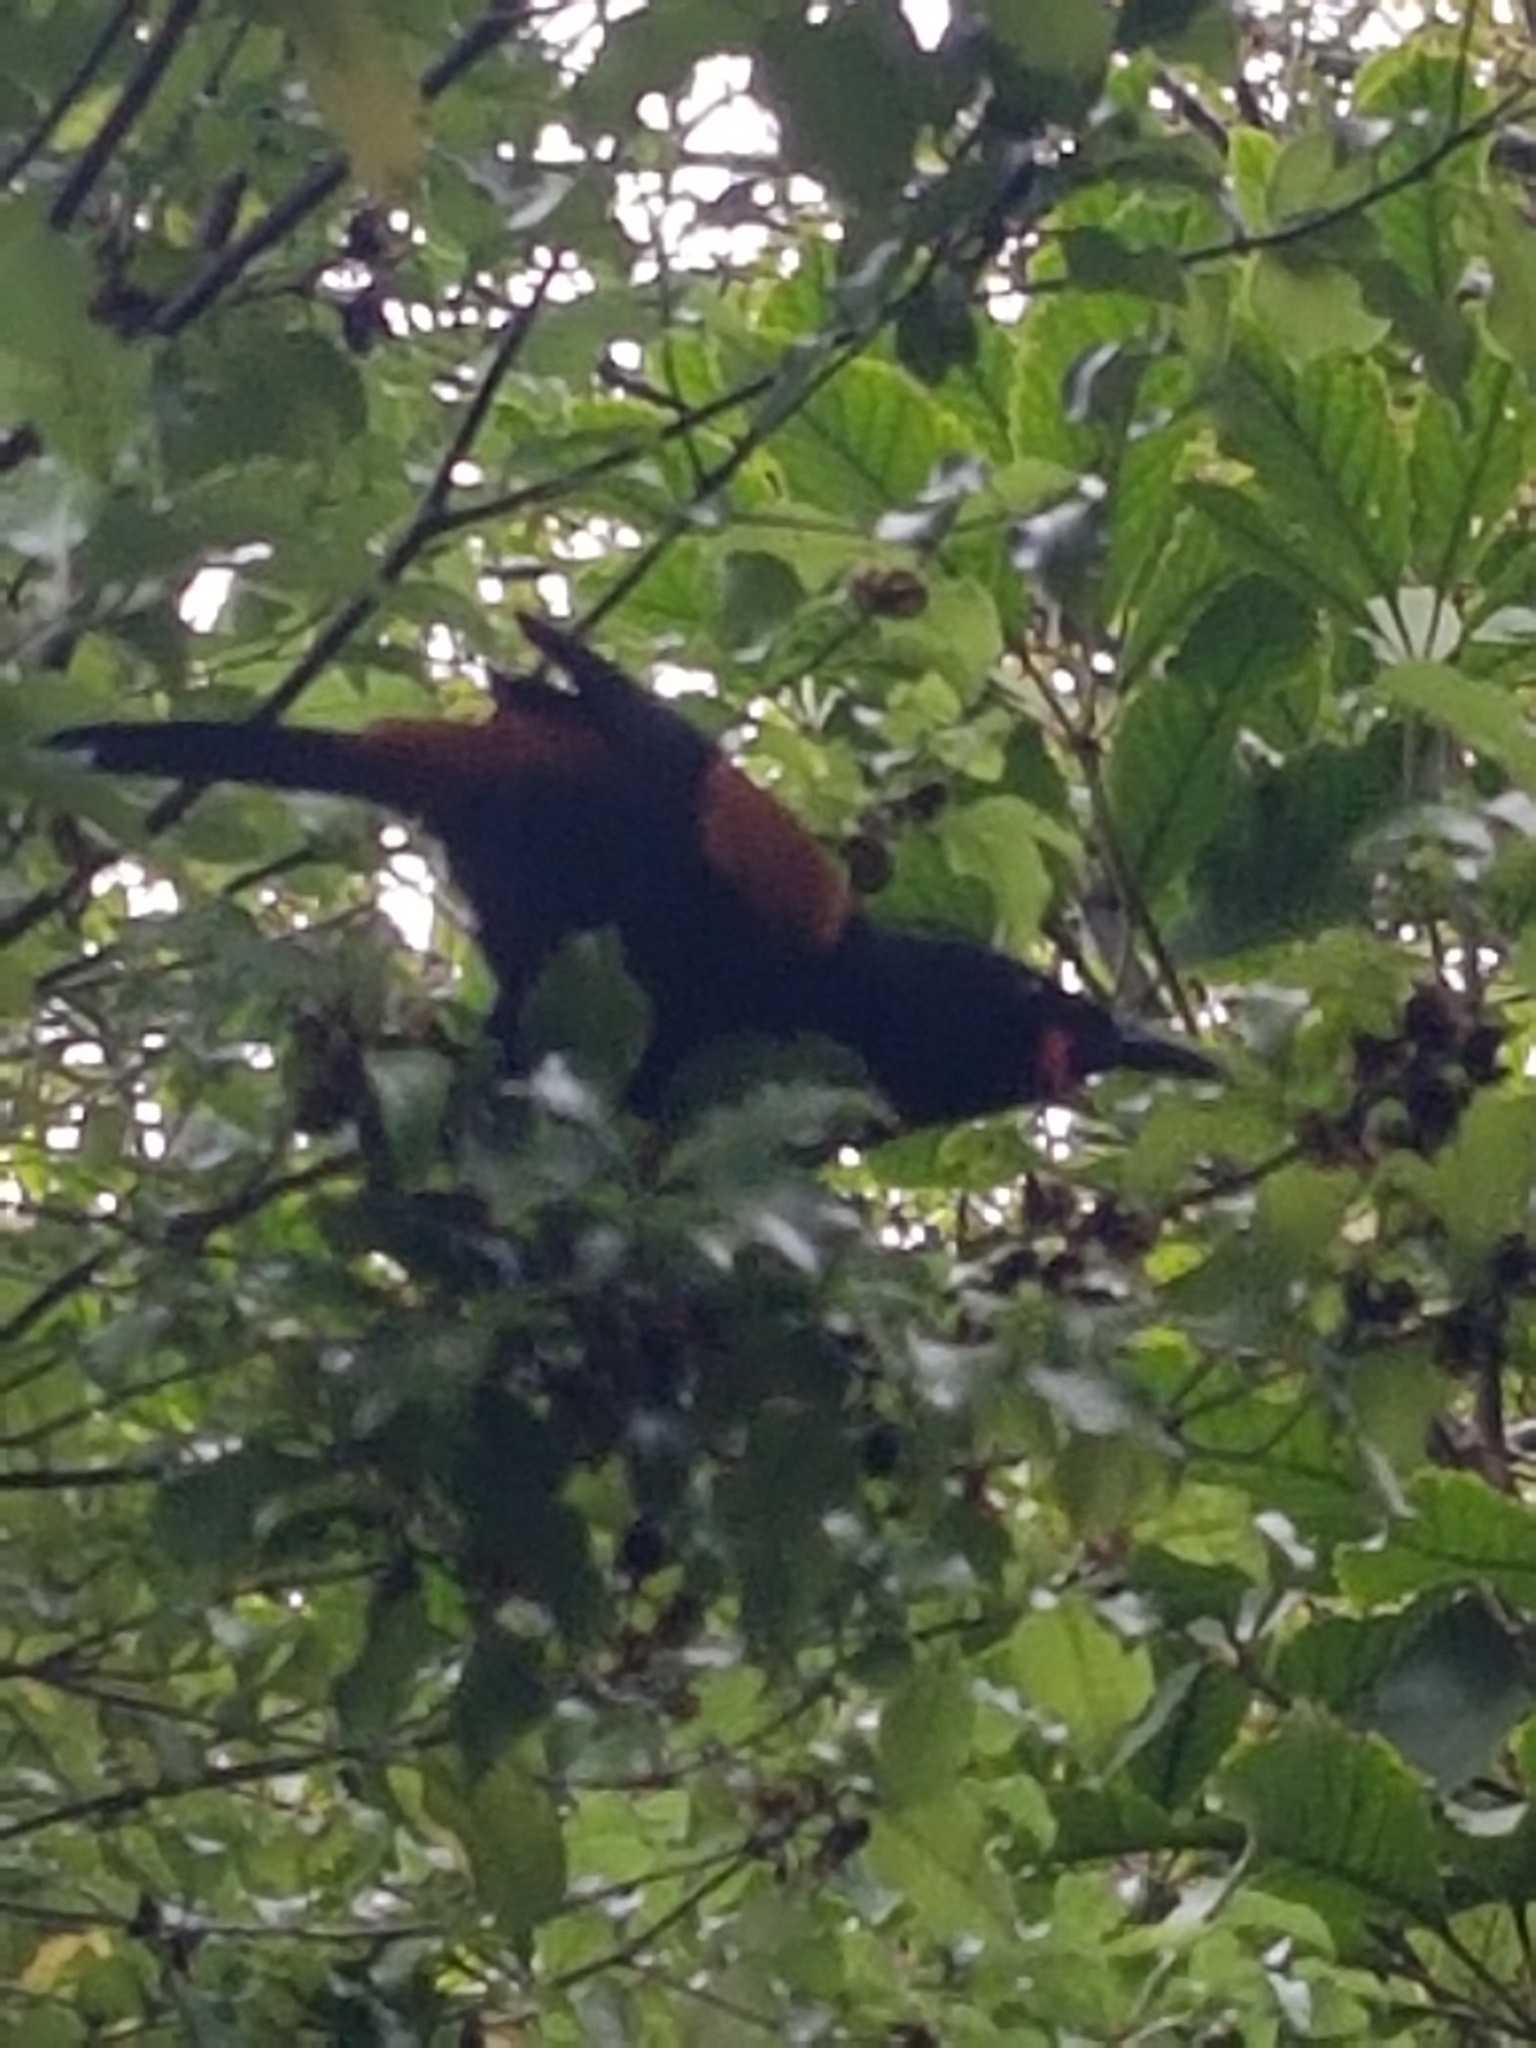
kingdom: Animalia
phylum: Chordata
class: Aves
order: Passeriformes
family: Callaeatidae
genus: Philesturnus
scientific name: Philesturnus carunculatus
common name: South island saddleback
